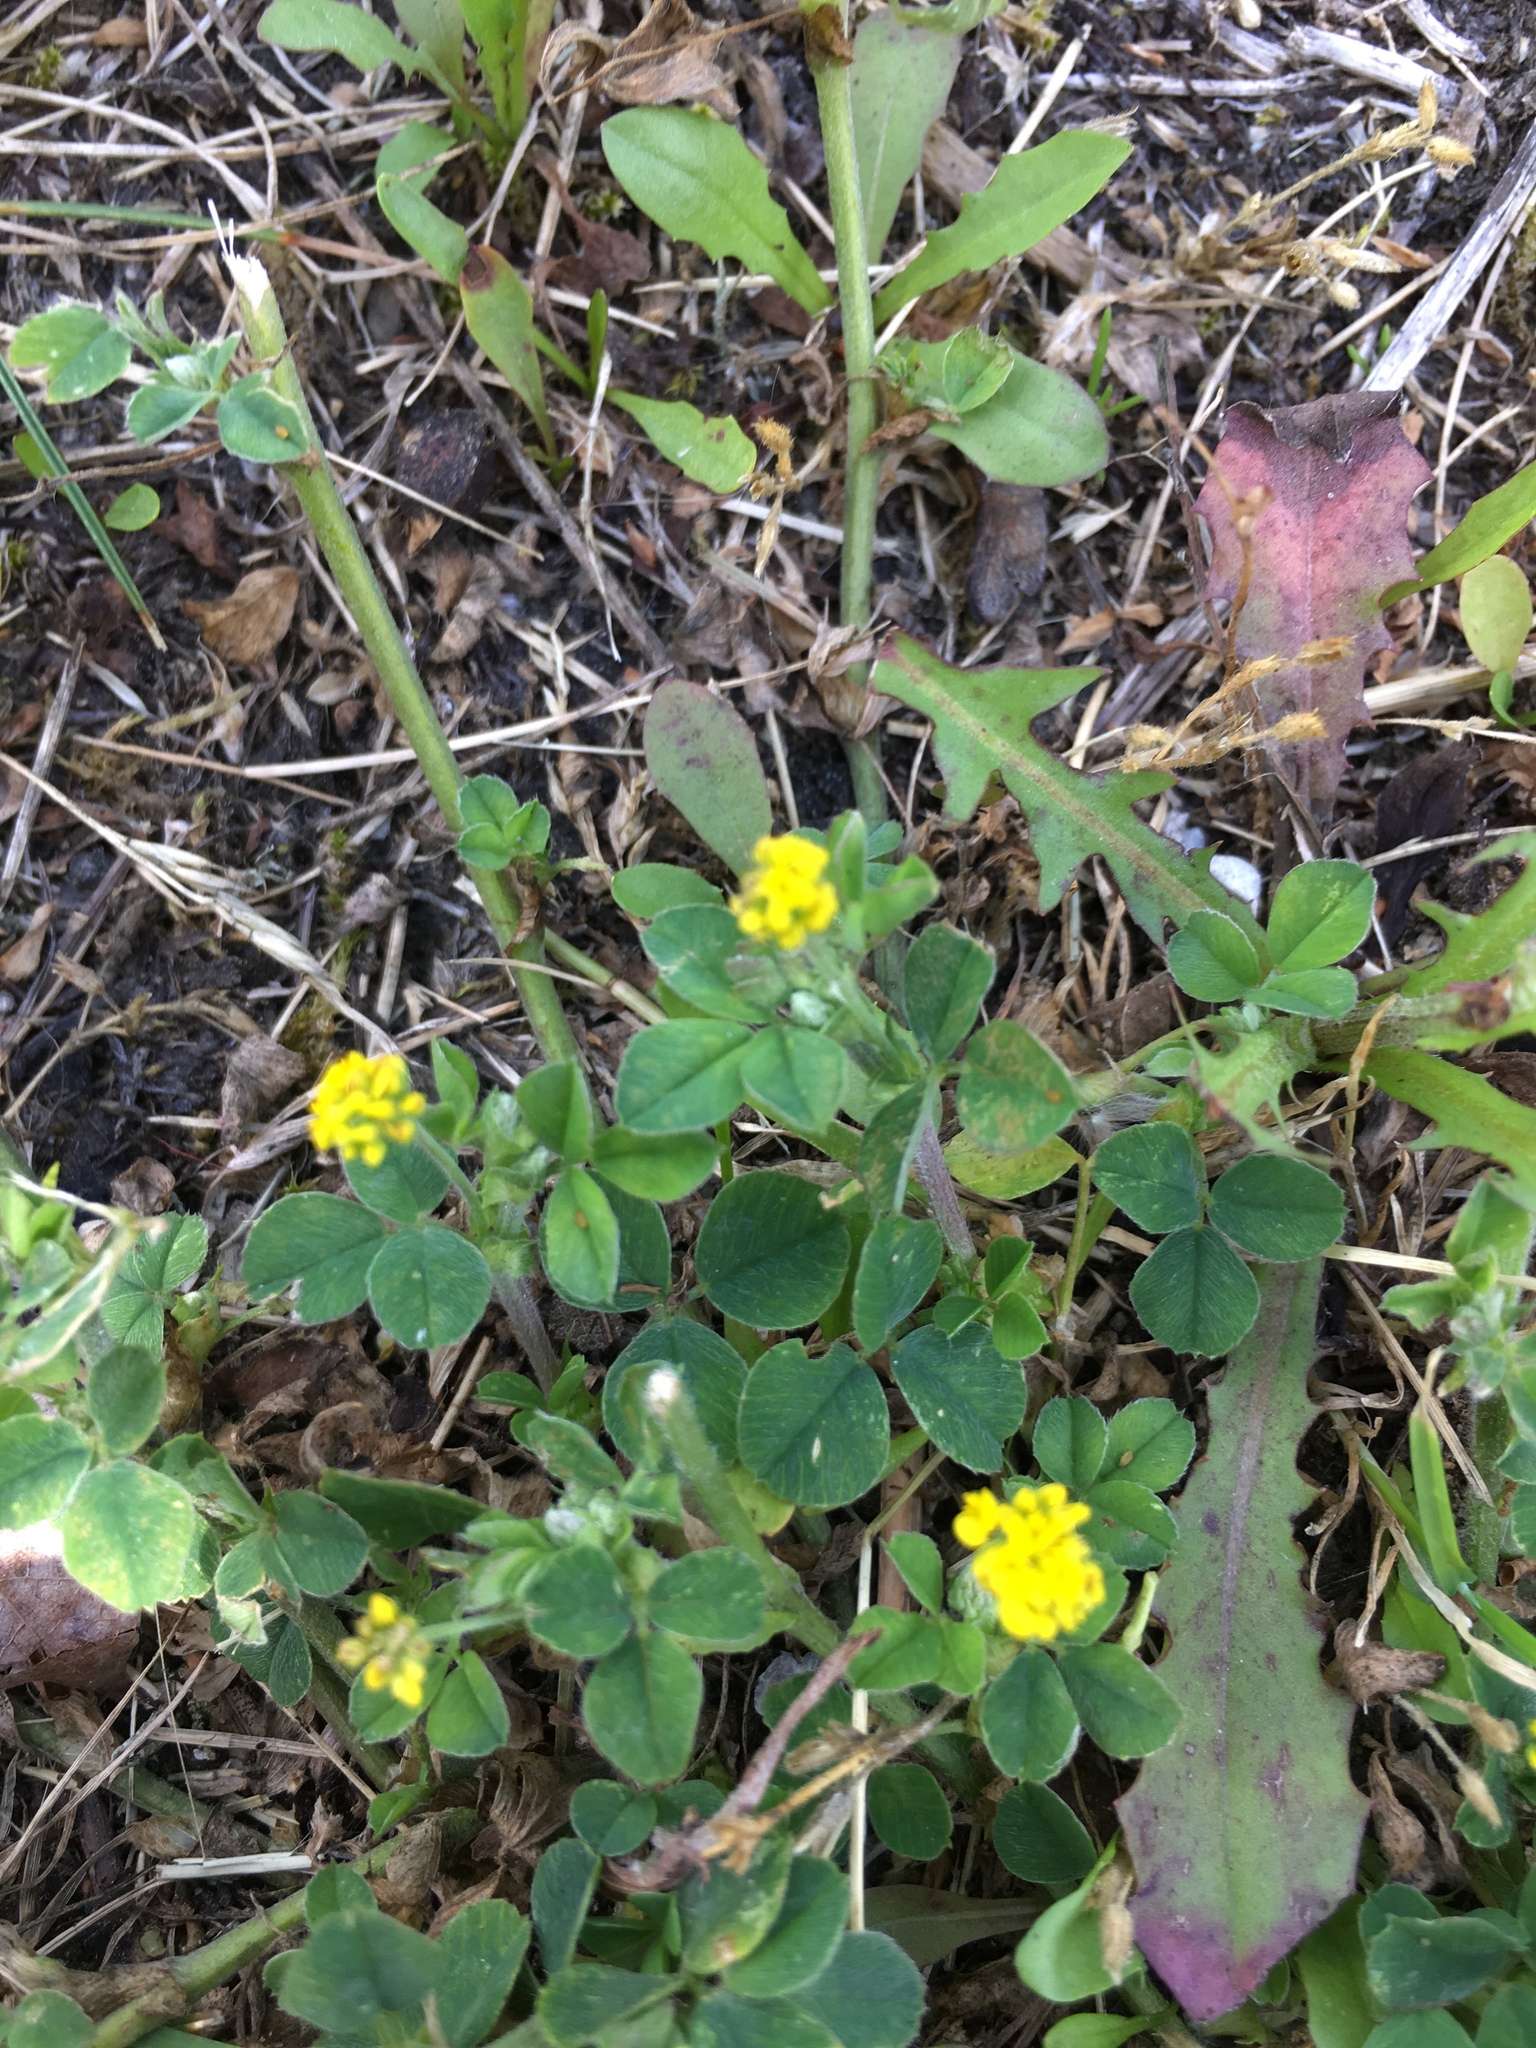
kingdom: Plantae
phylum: Tracheophyta
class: Magnoliopsida
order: Fabales
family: Fabaceae
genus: Medicago
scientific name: Medicago lupulina
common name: Black medick
